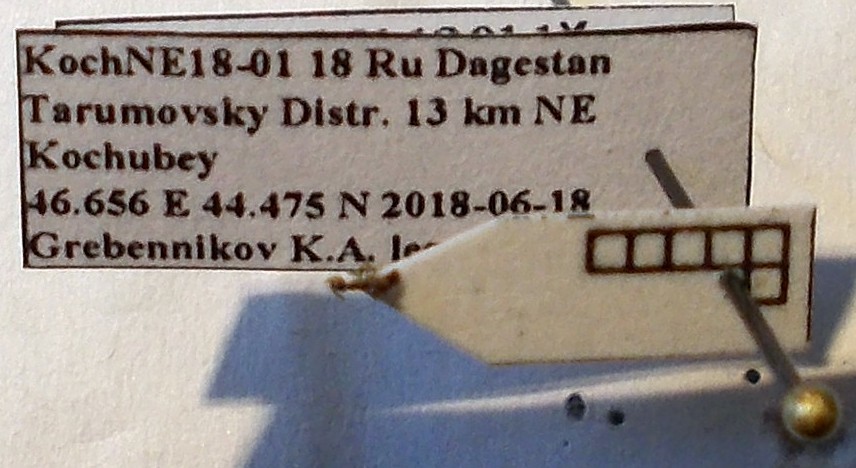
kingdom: Animalia
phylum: Arthropoda
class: Insecta
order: Hymenoptera
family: Formicidae
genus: Plagiolepis
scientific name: Plagiolepis pallescens
